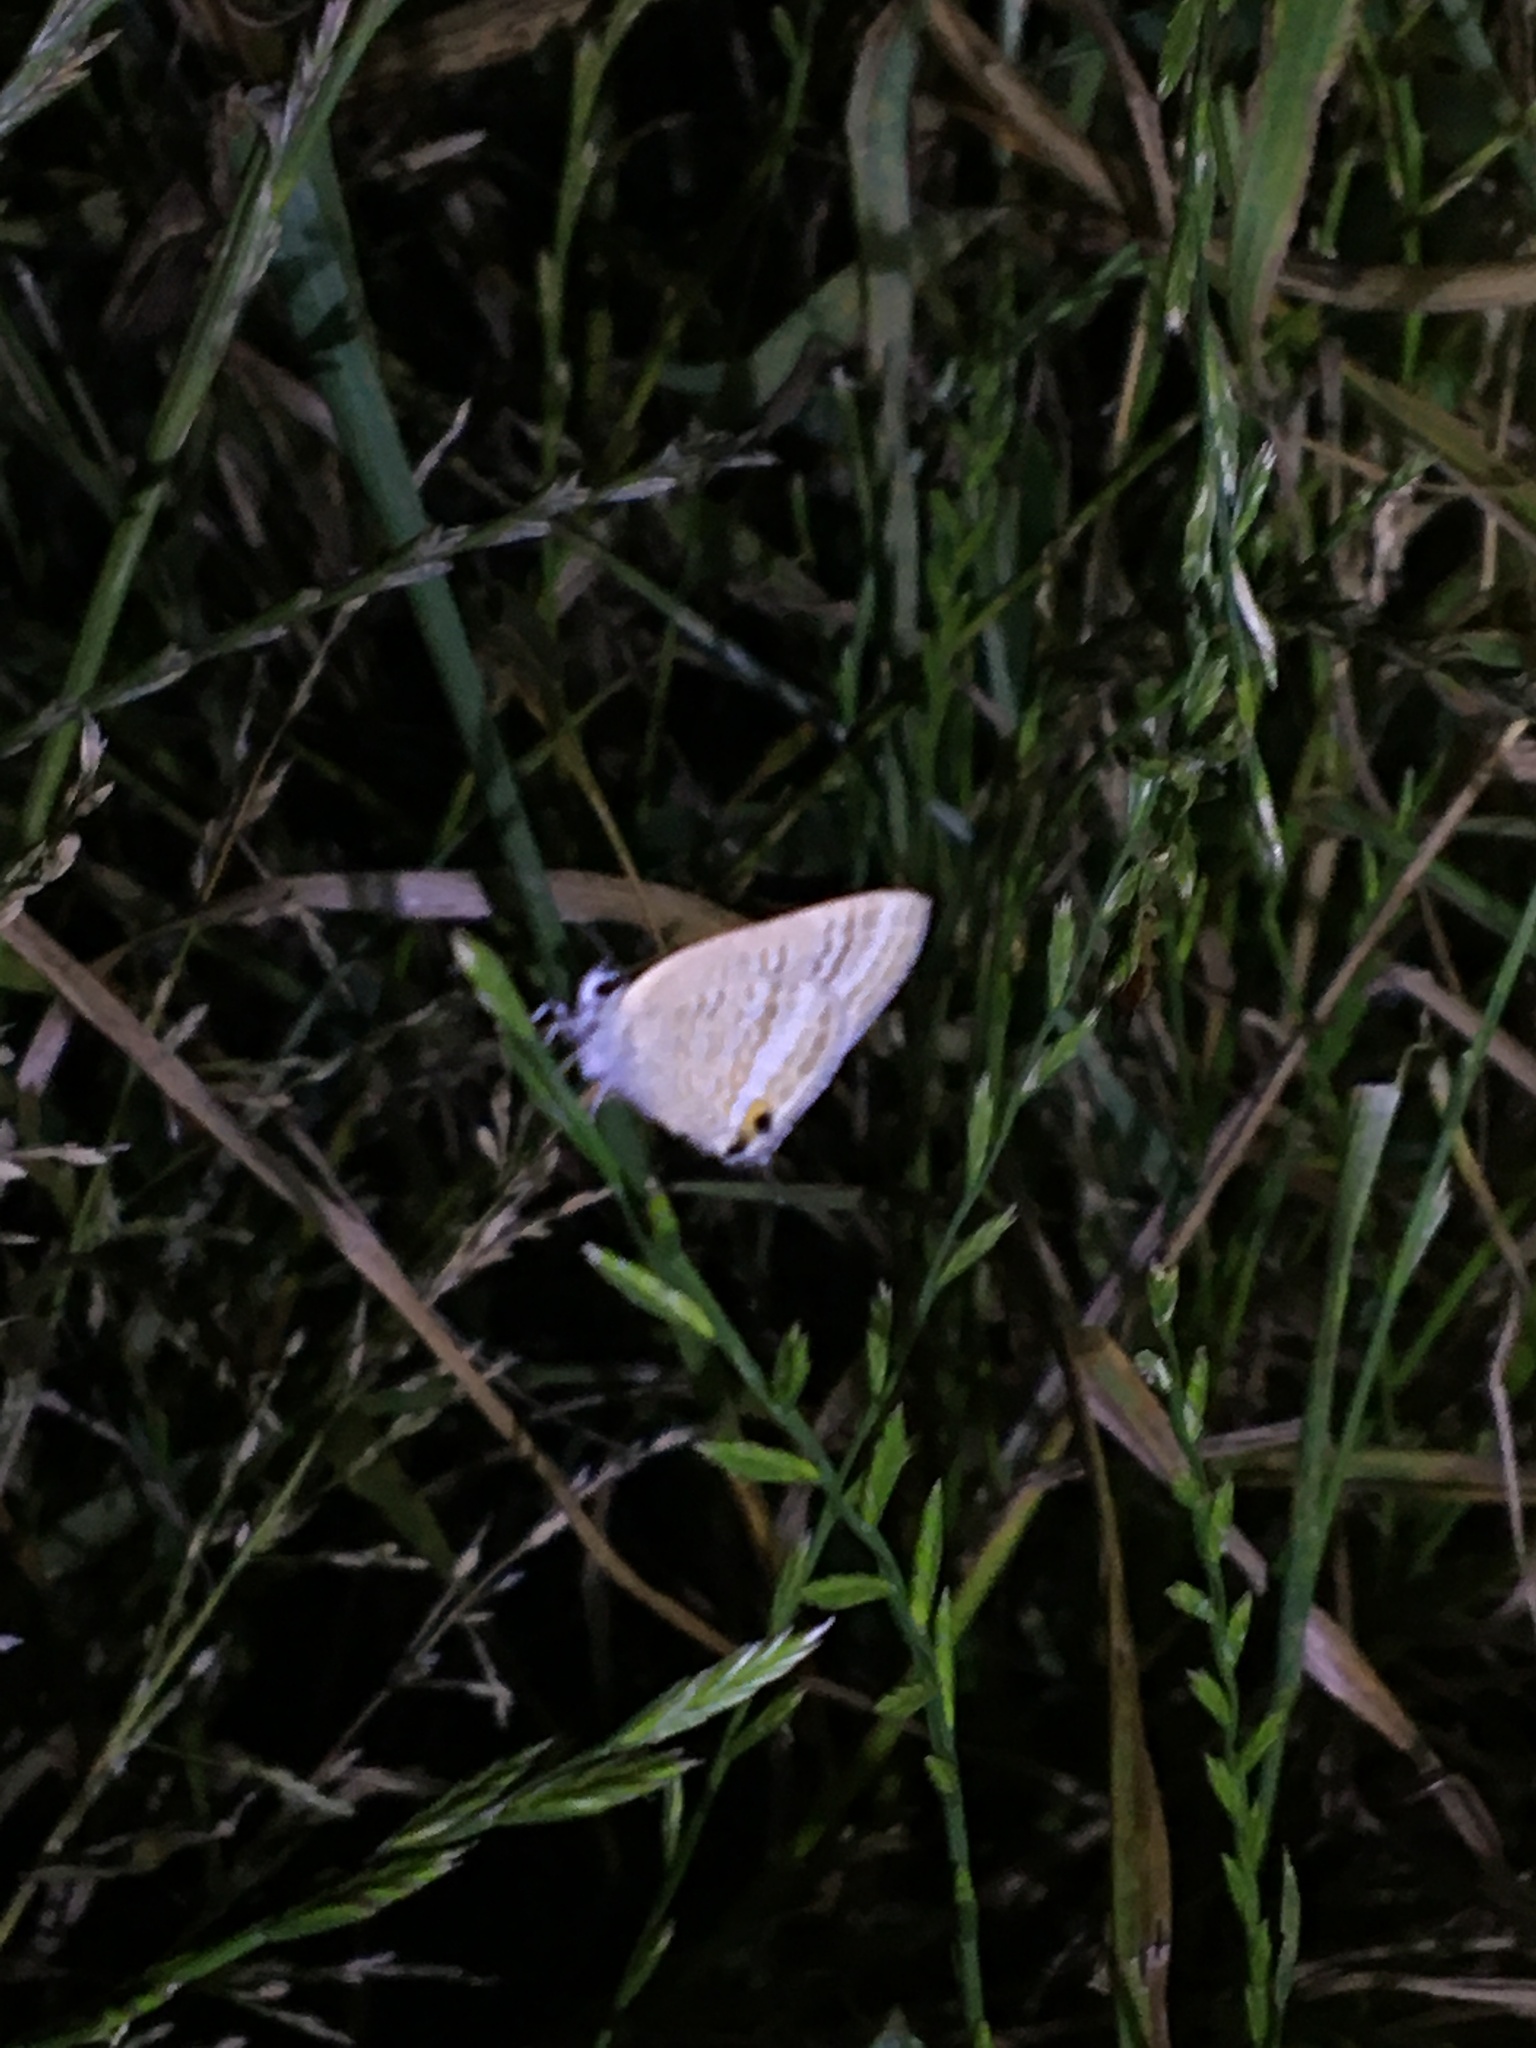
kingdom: Animalia
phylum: Arthropoda
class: Insecta
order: Lepidoptera
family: Lycaenidae
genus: Lampides
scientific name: Lampides boeticus
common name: Long-tailed blue
